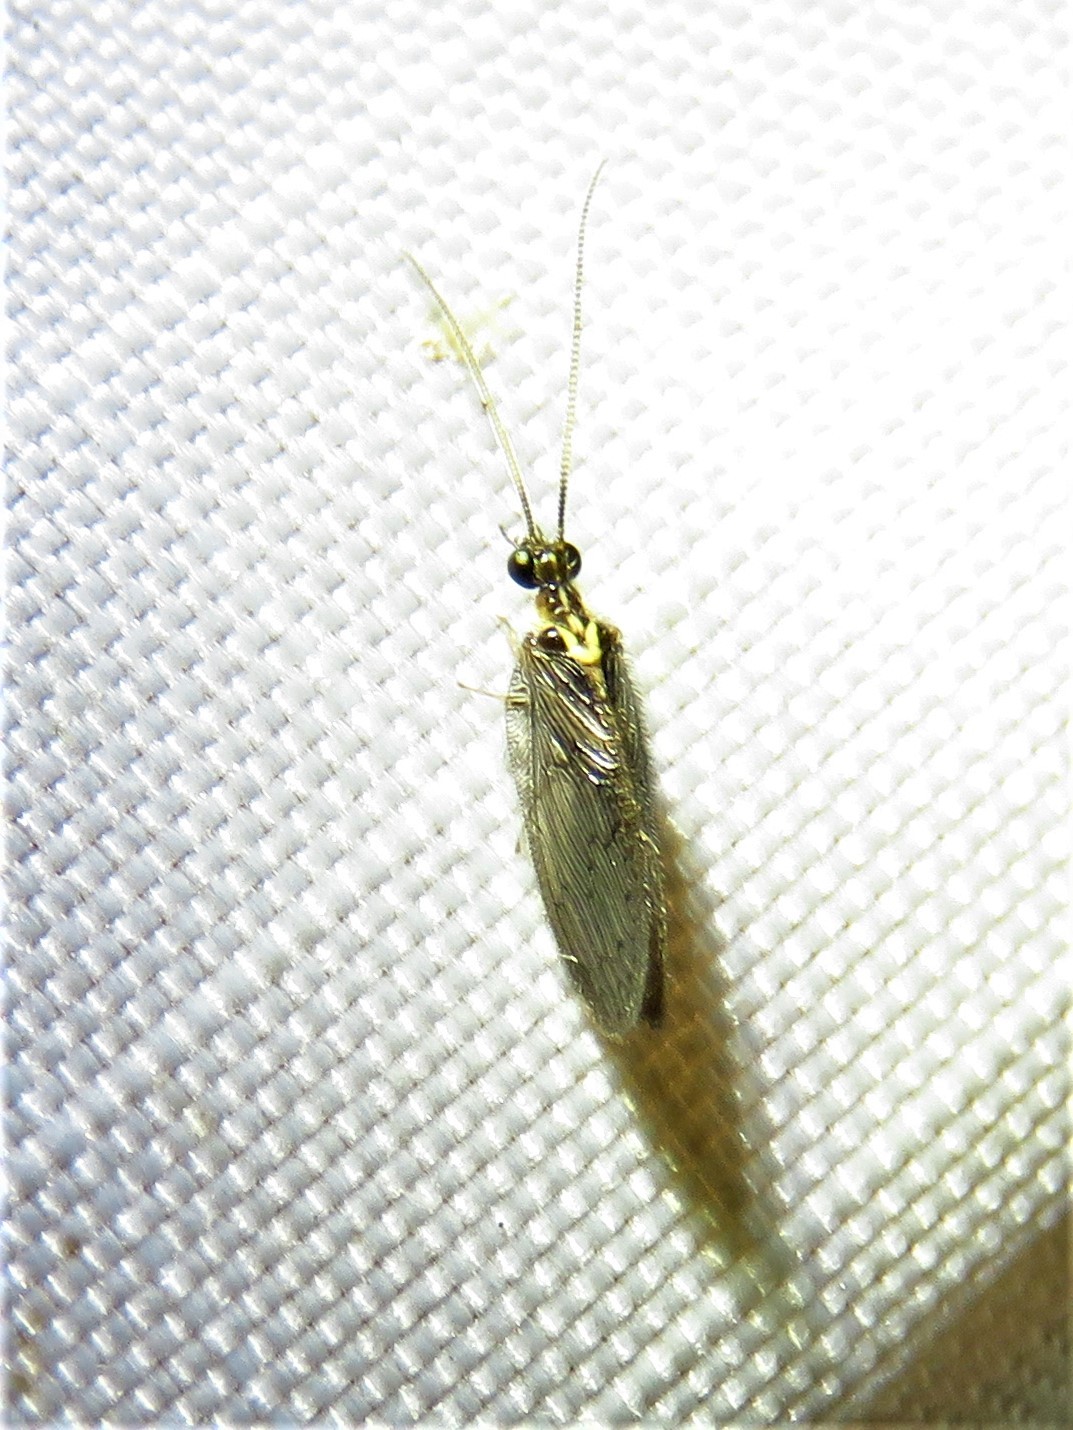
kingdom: Animalia
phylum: Arthropoda
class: Insecta
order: Neuroptera
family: Hemerobiidae
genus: Sympherobius
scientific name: Sympherobius occidentalis
